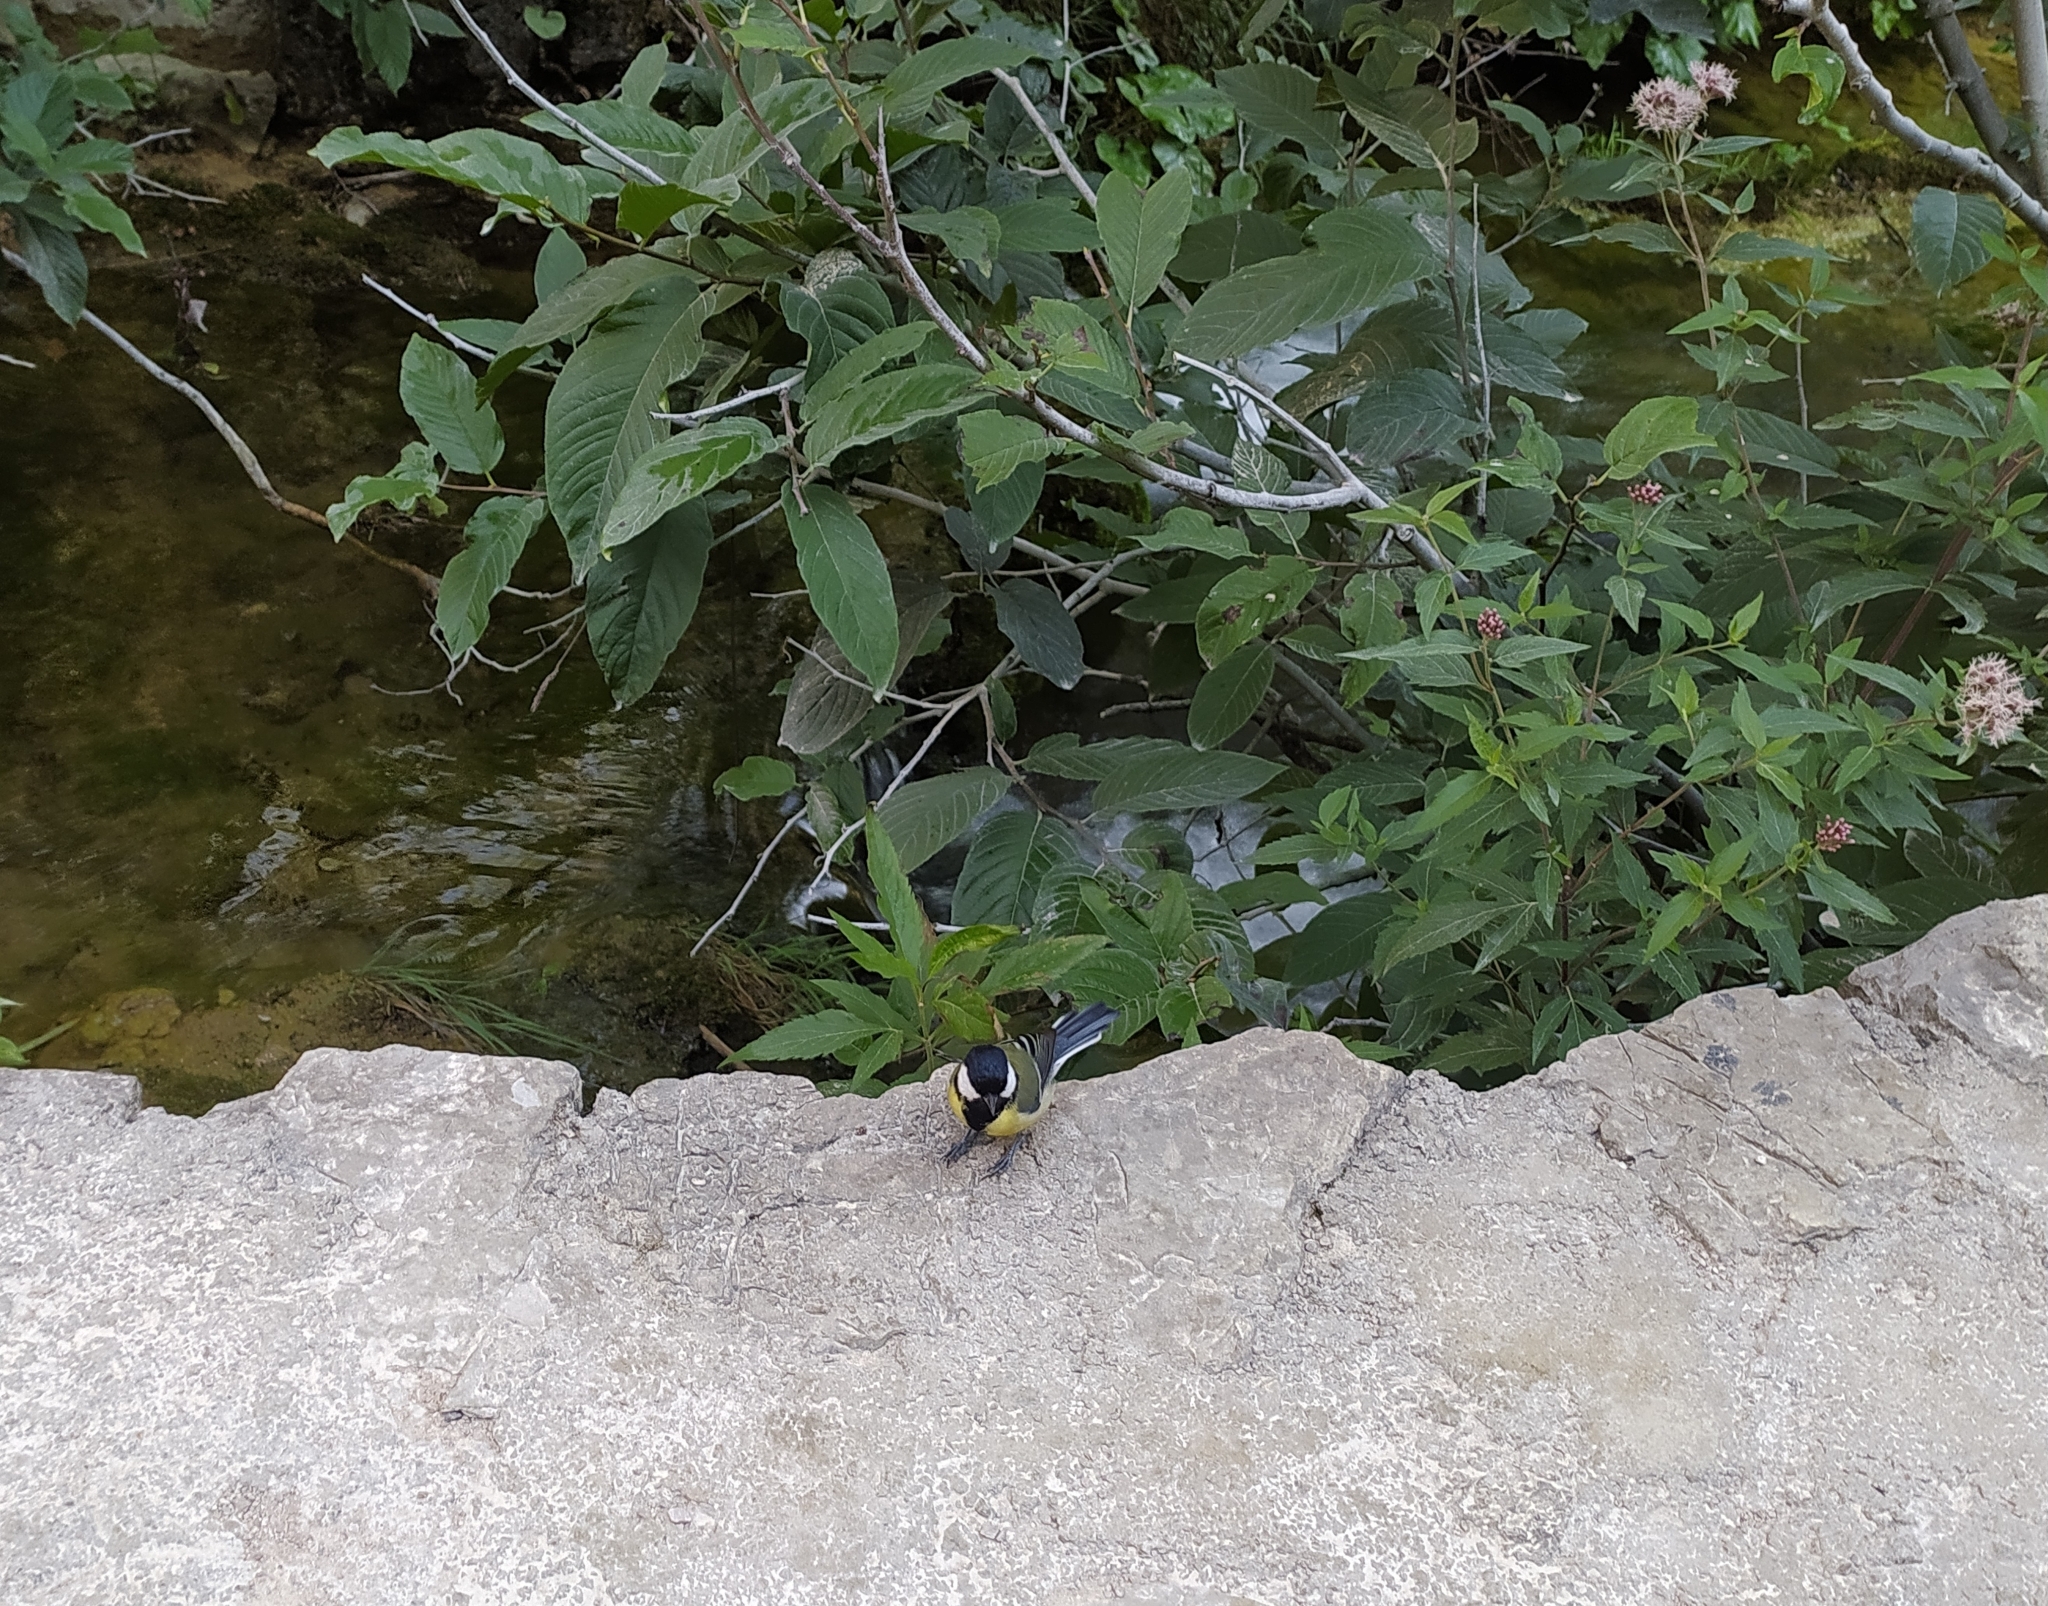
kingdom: Animalia
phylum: Chordata
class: Aves
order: Passeriformes
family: Paridae
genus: Parus
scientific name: Parus major
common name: Great tit
